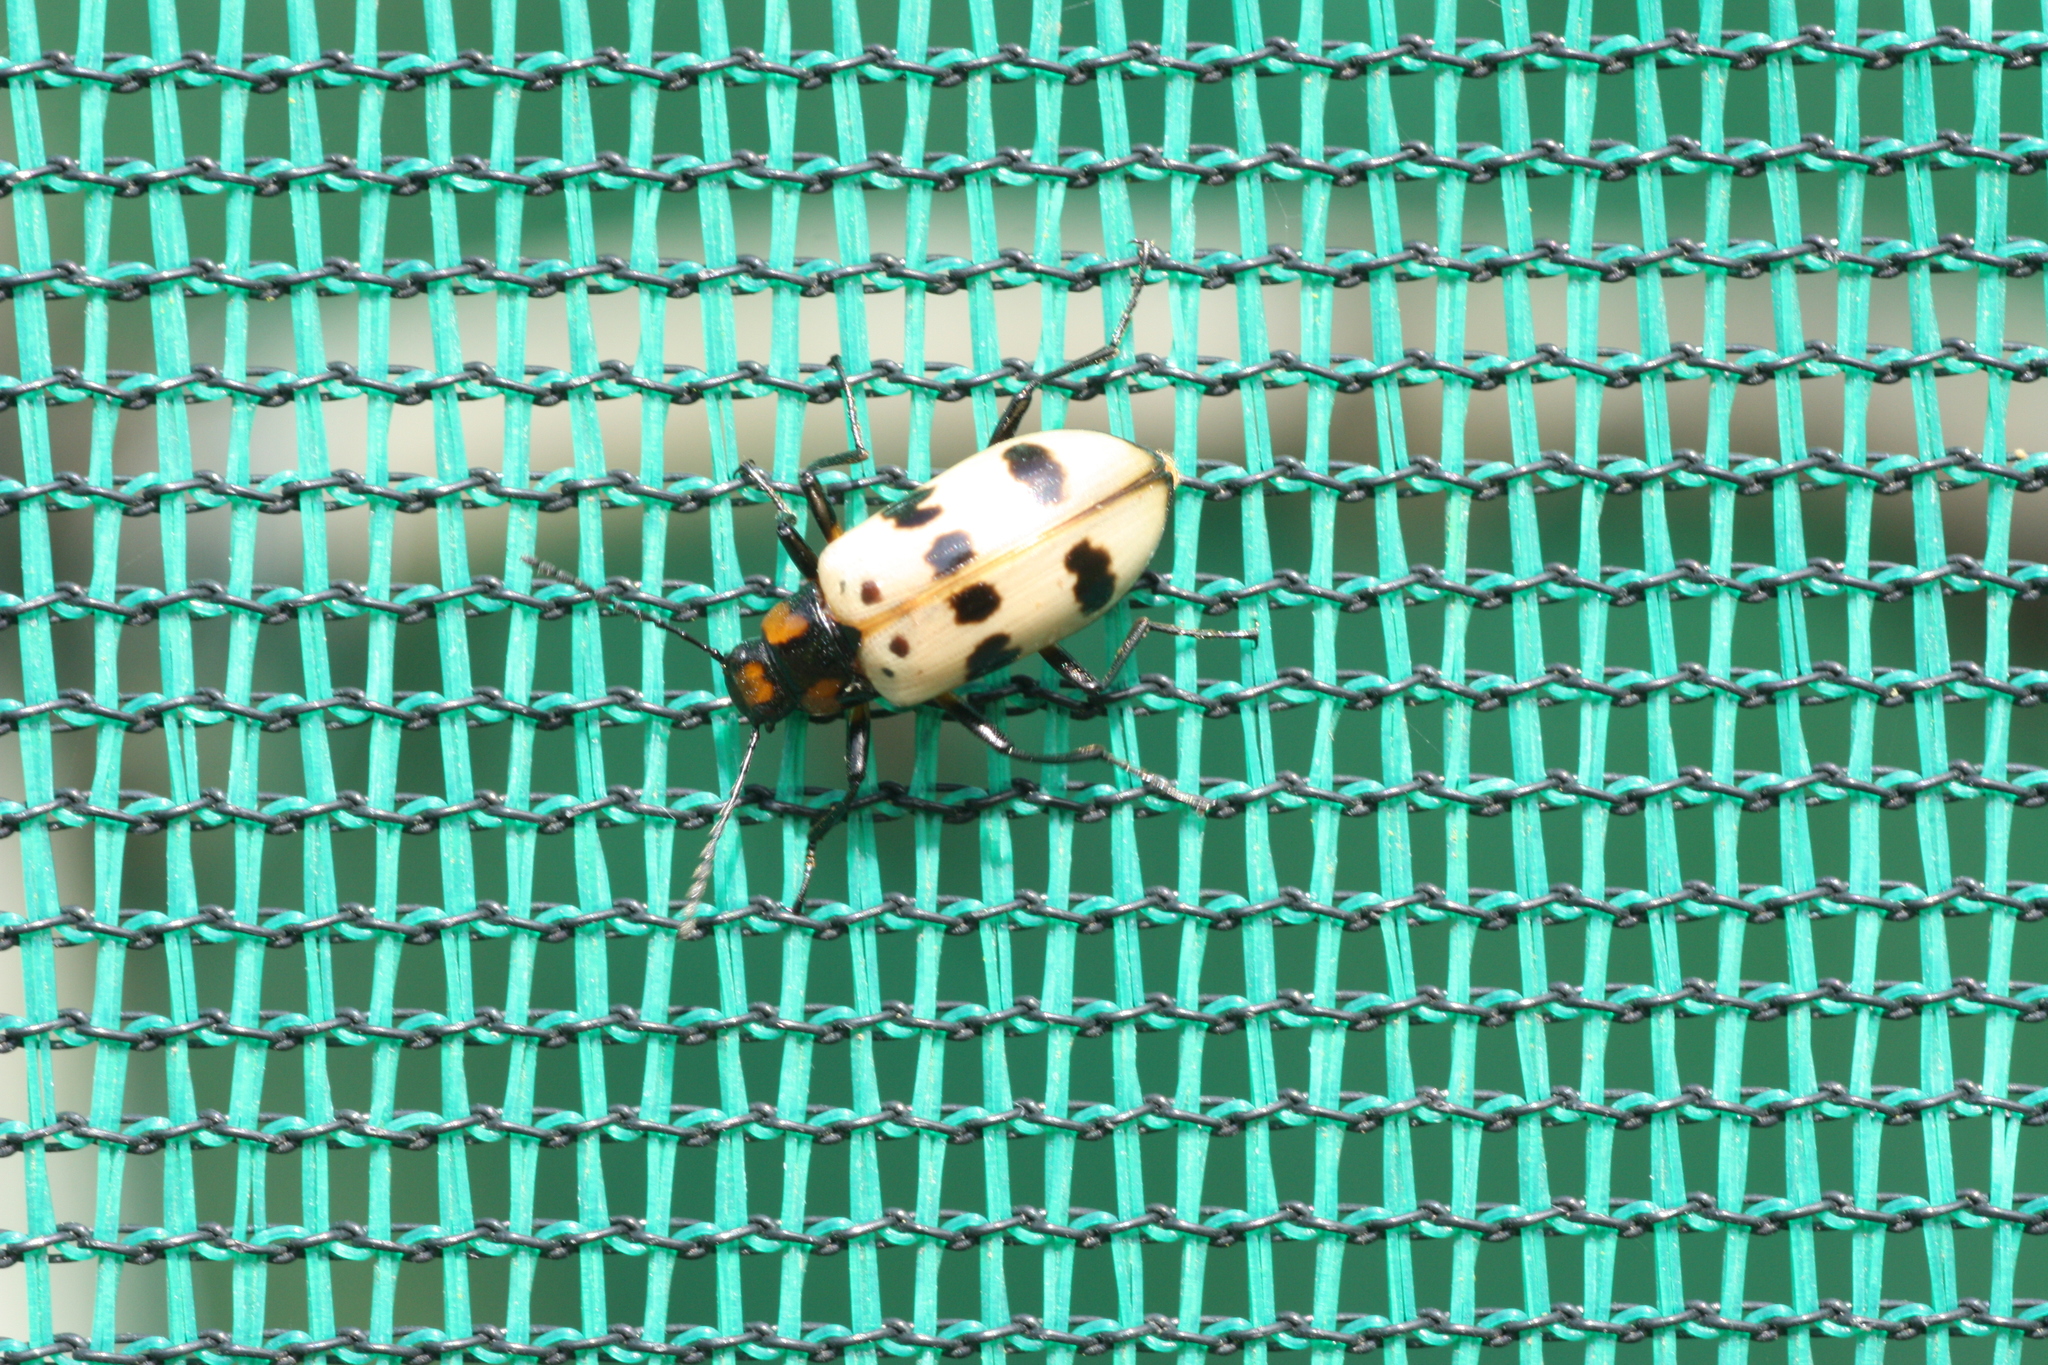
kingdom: Animalia
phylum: Arthropoda
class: Insecta
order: Coleoptera
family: Tenebrionidae
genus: Strongylium
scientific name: Strongylium maculicolle
